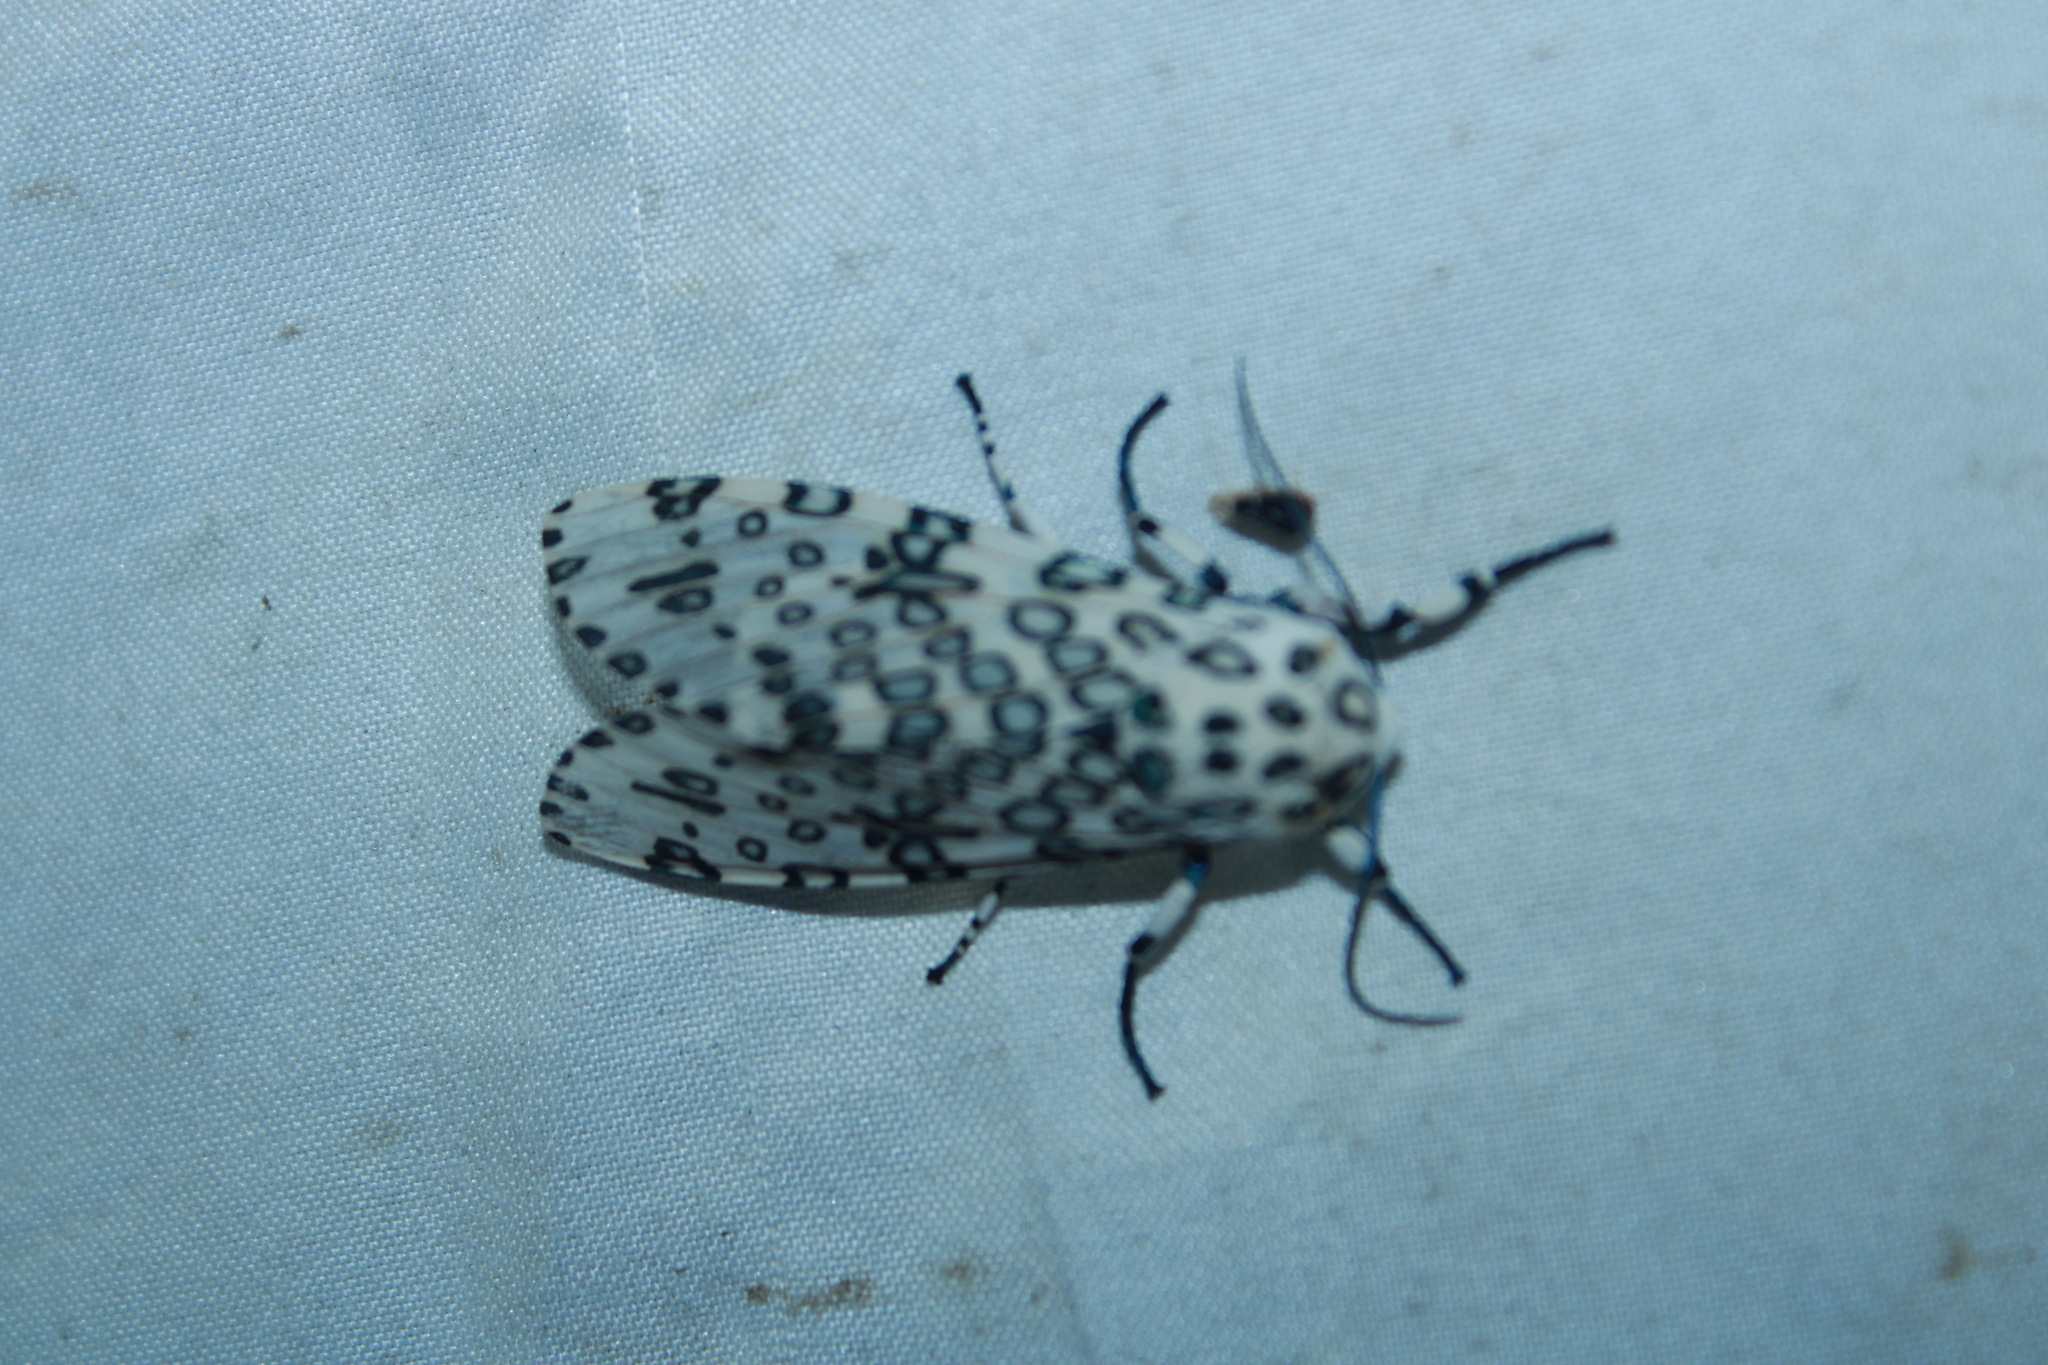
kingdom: Animalia
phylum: Arthropoda
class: Insecta
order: Lepidoptera
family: Erebidae
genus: Hypercompe
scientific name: Hypercompe scribonia
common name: Giant leopard moth
